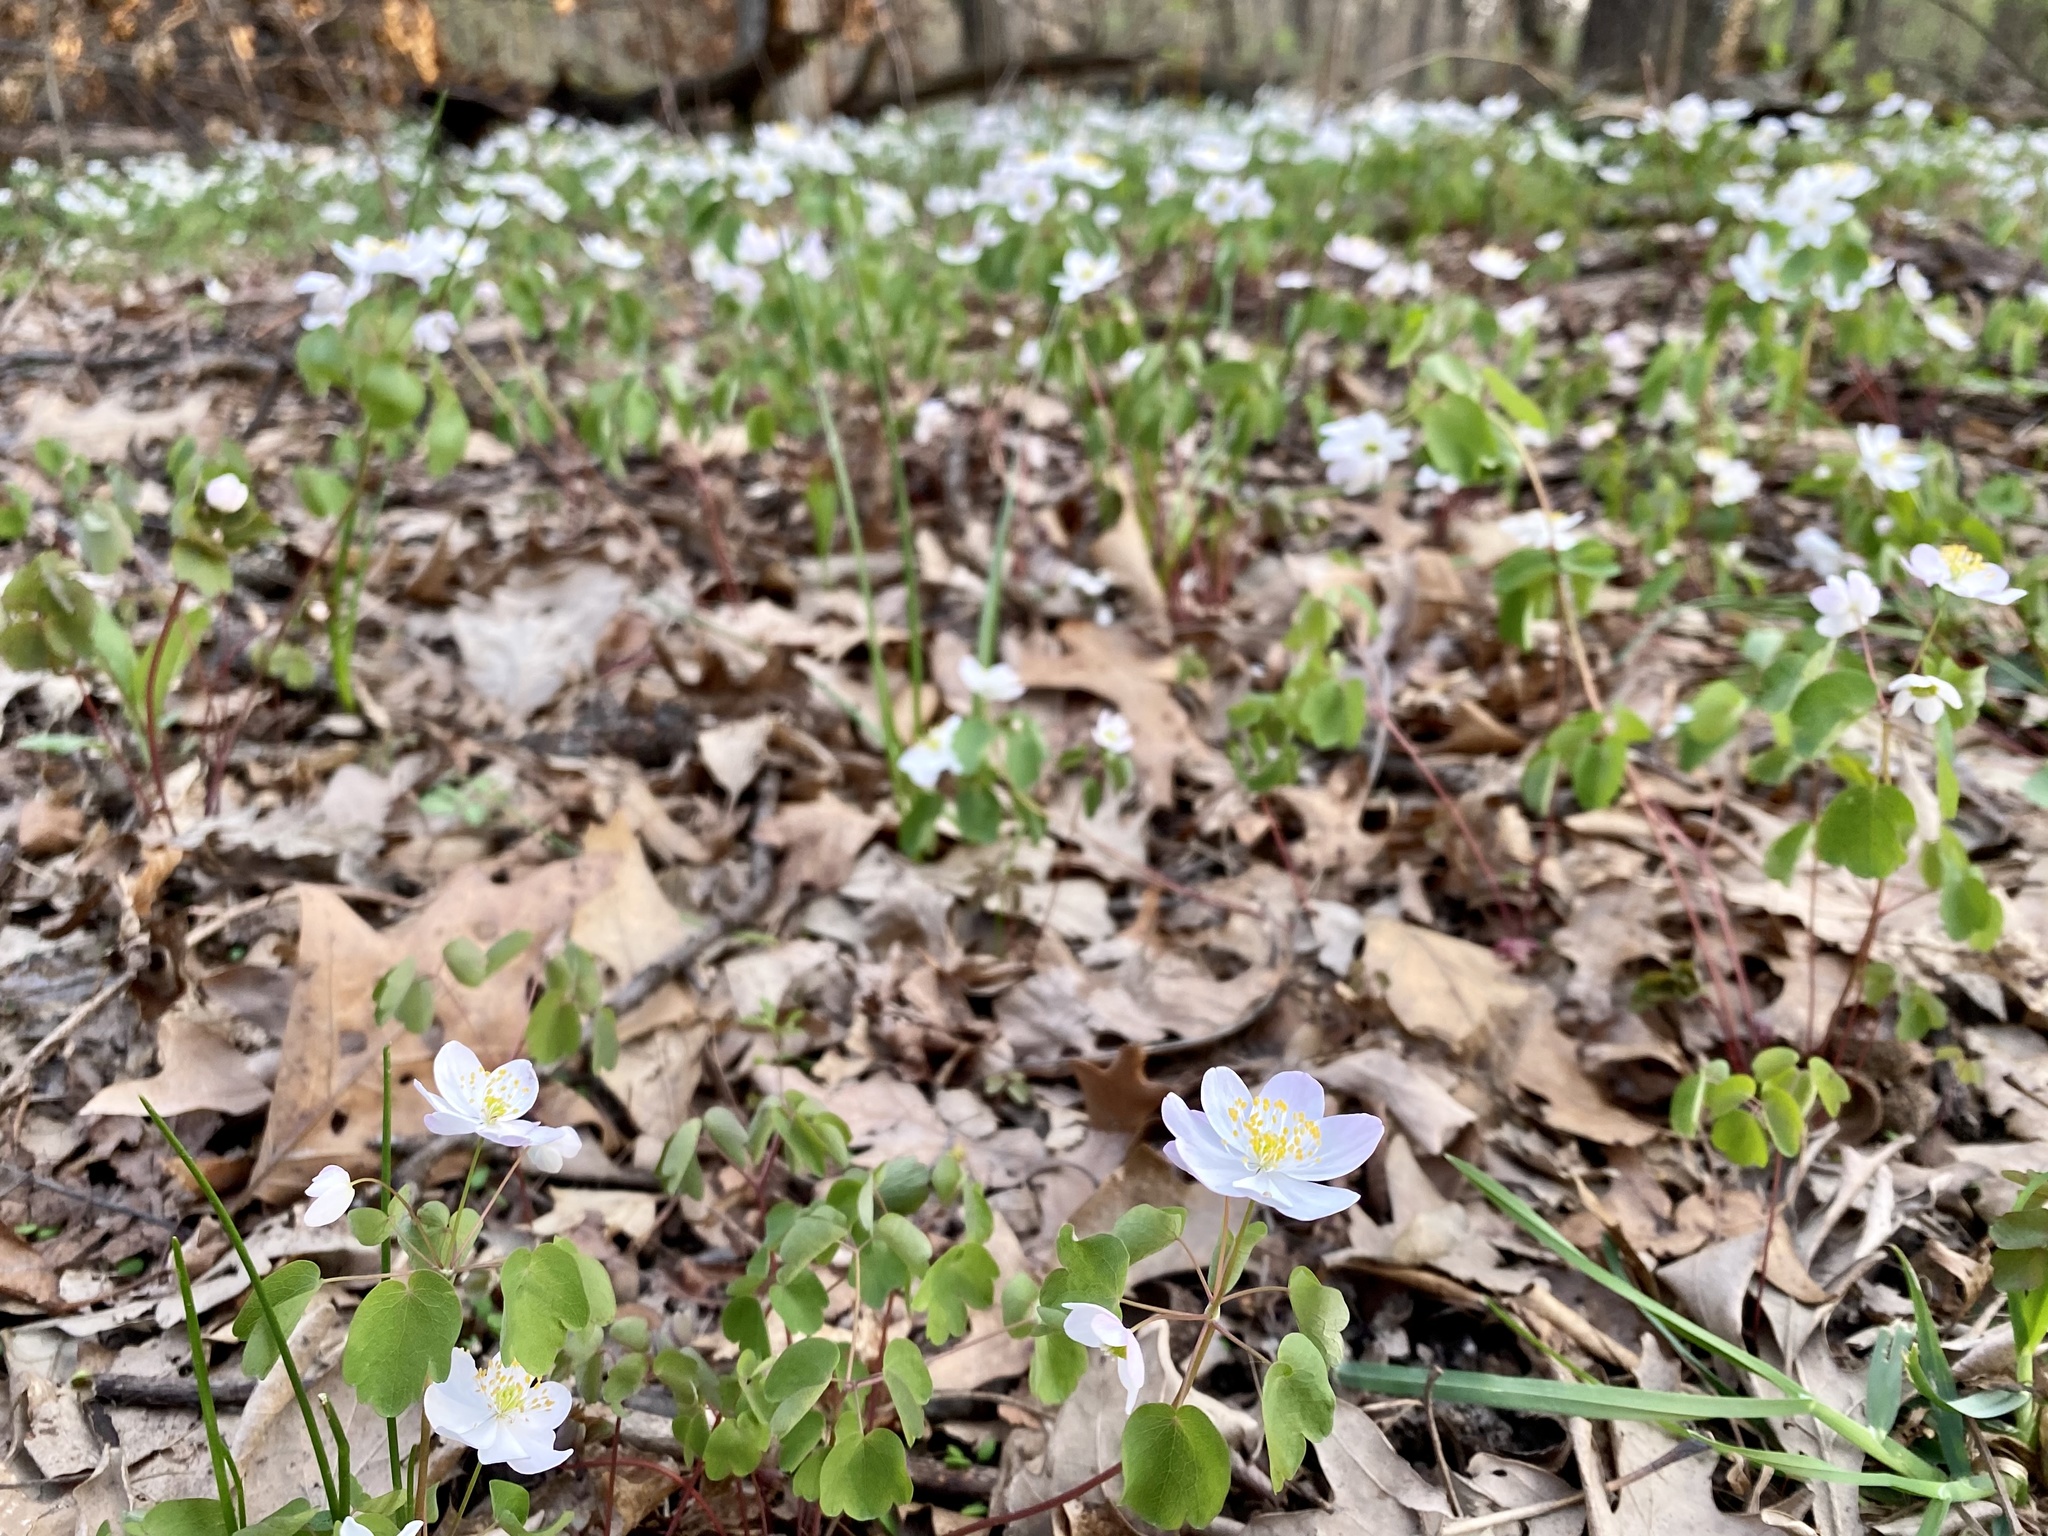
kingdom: Plantae
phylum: Tracheophyta
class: Magnoliopsida
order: Ranunculales
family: Ranunculaceae
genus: Thalictrum
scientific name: Thalictrum thalictroides
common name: Rue-anemone
